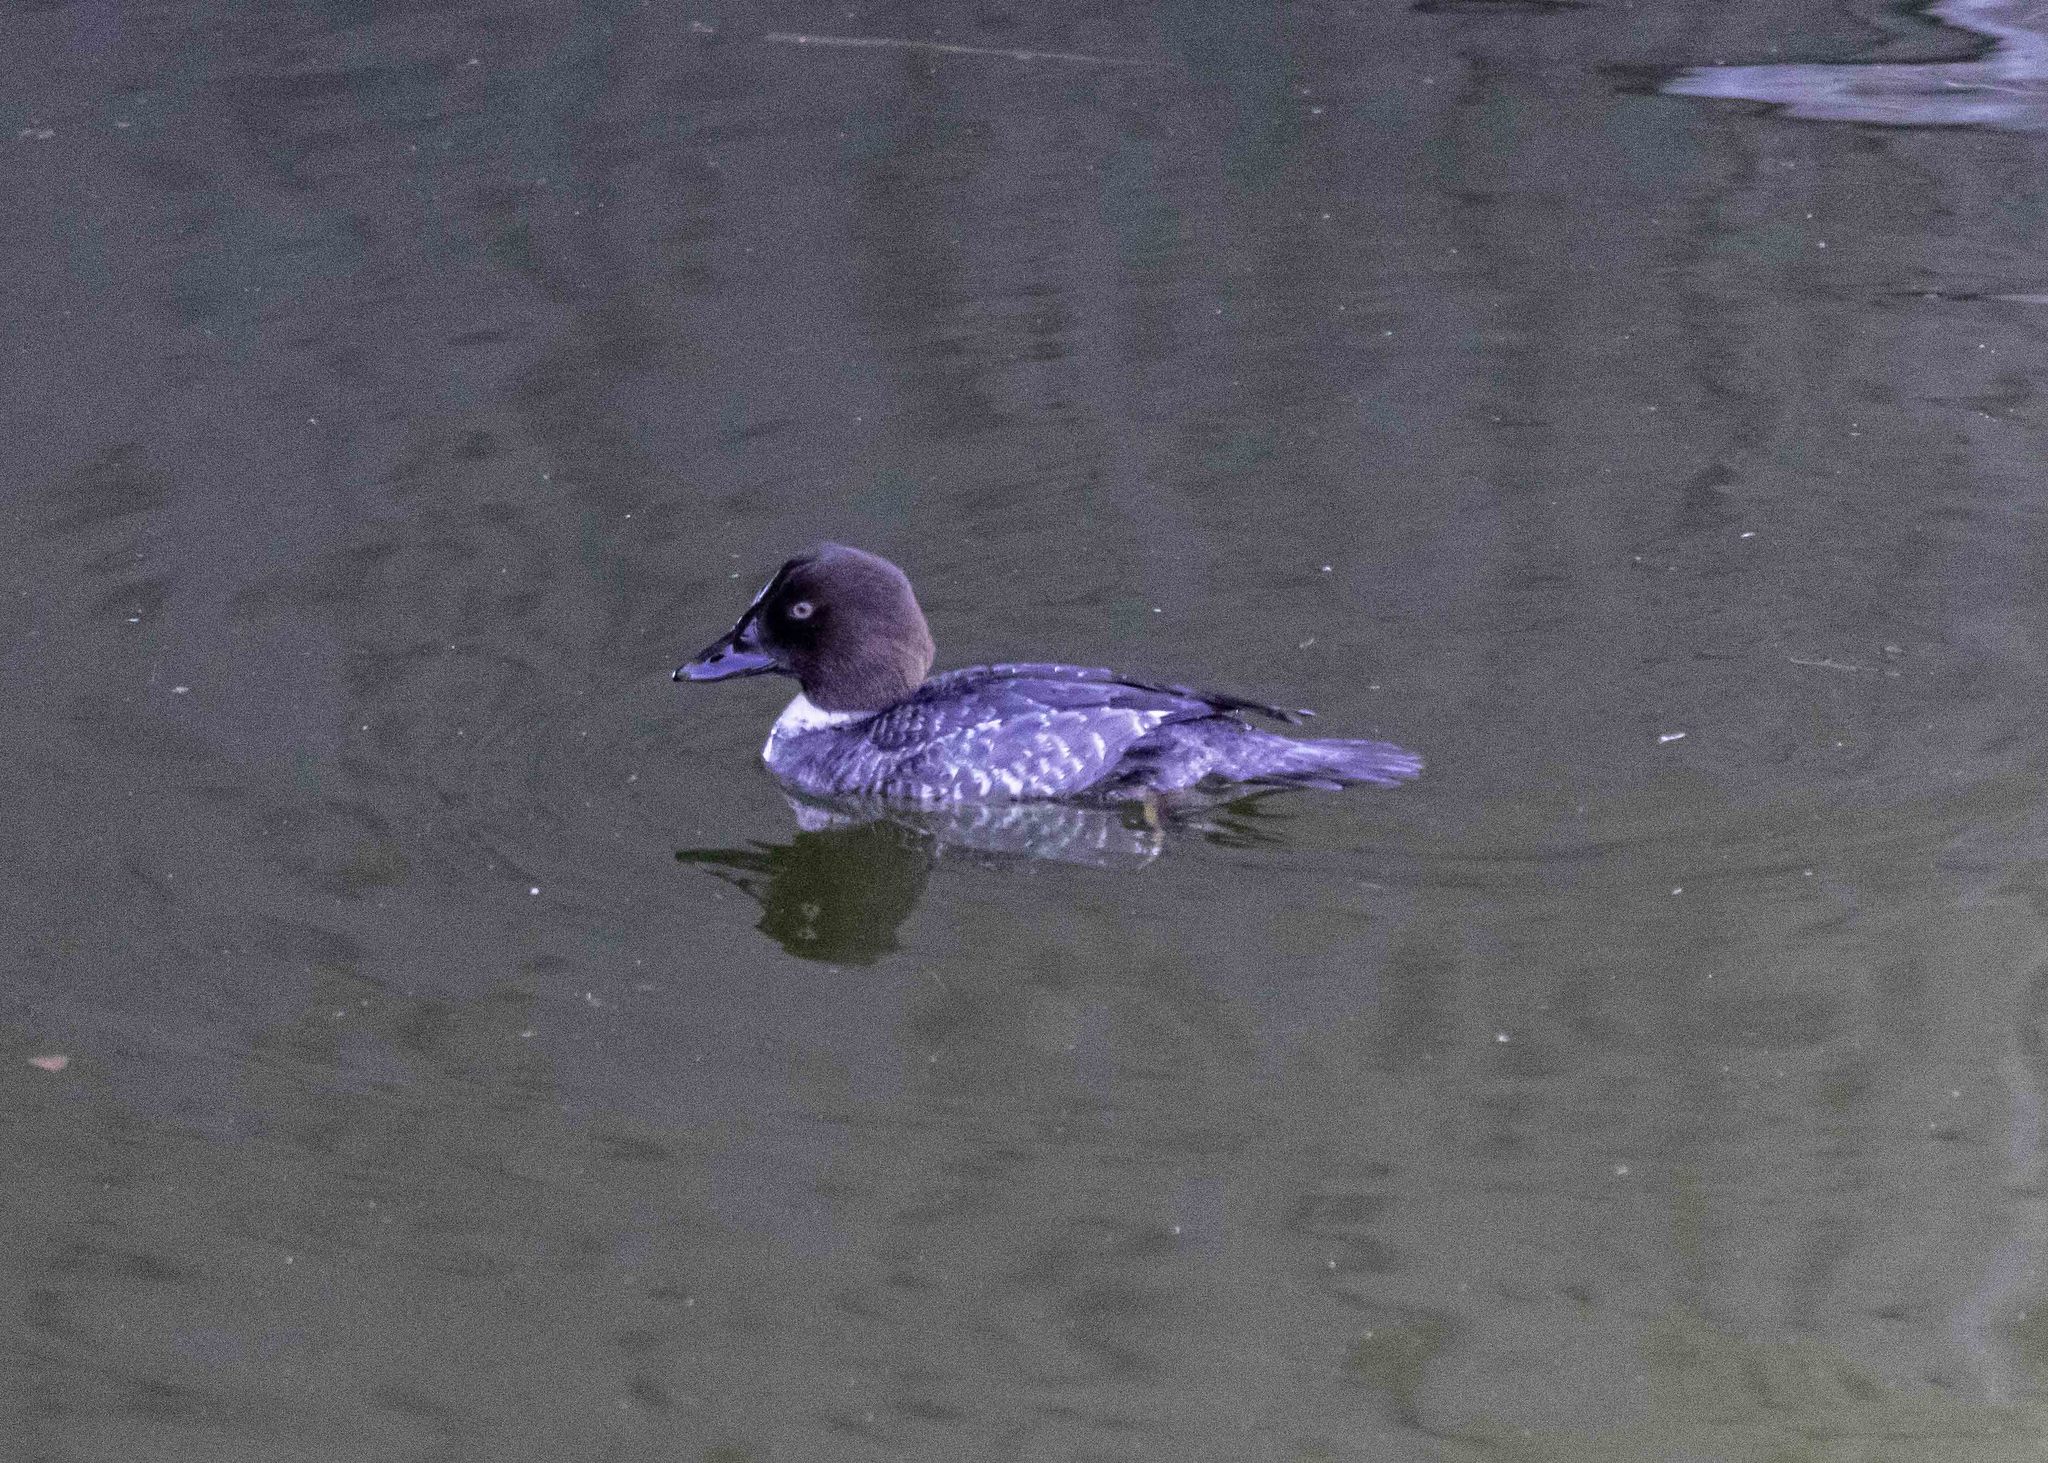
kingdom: Animalia
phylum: Chordata
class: Aves
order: Anseriformes
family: Anatidae
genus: Bucephala
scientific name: Bucephala clangula
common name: Common goldeneye
